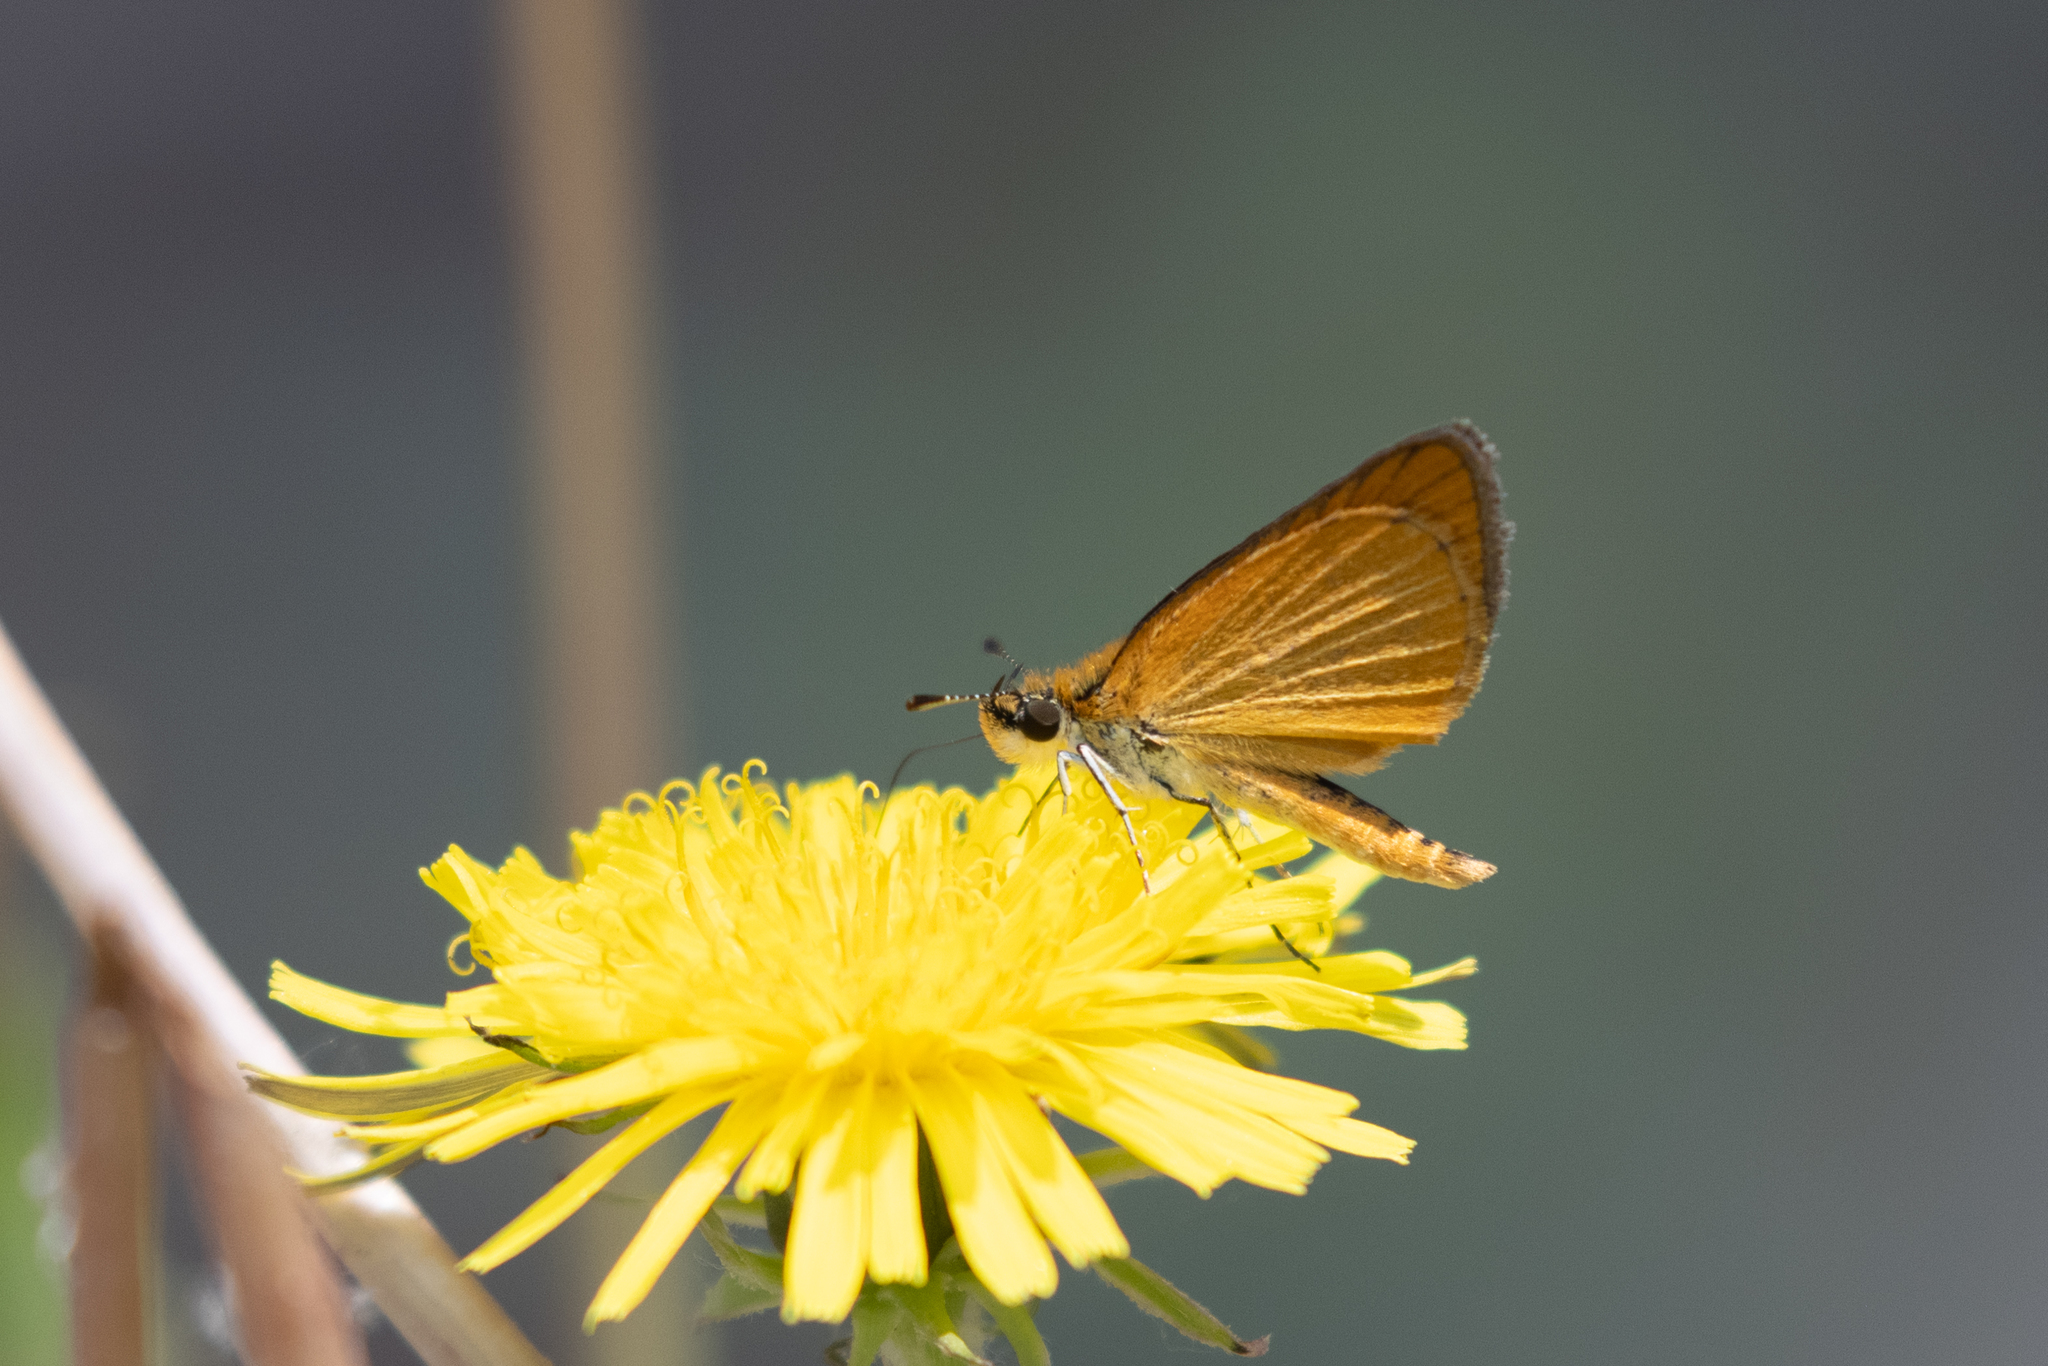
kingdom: Animalia
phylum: Arthropoda
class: Insecta
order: Lepidoptera
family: Hesperiidae
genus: Ancyloxypha
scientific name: Ancyloxypha numitor
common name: Least skipper
